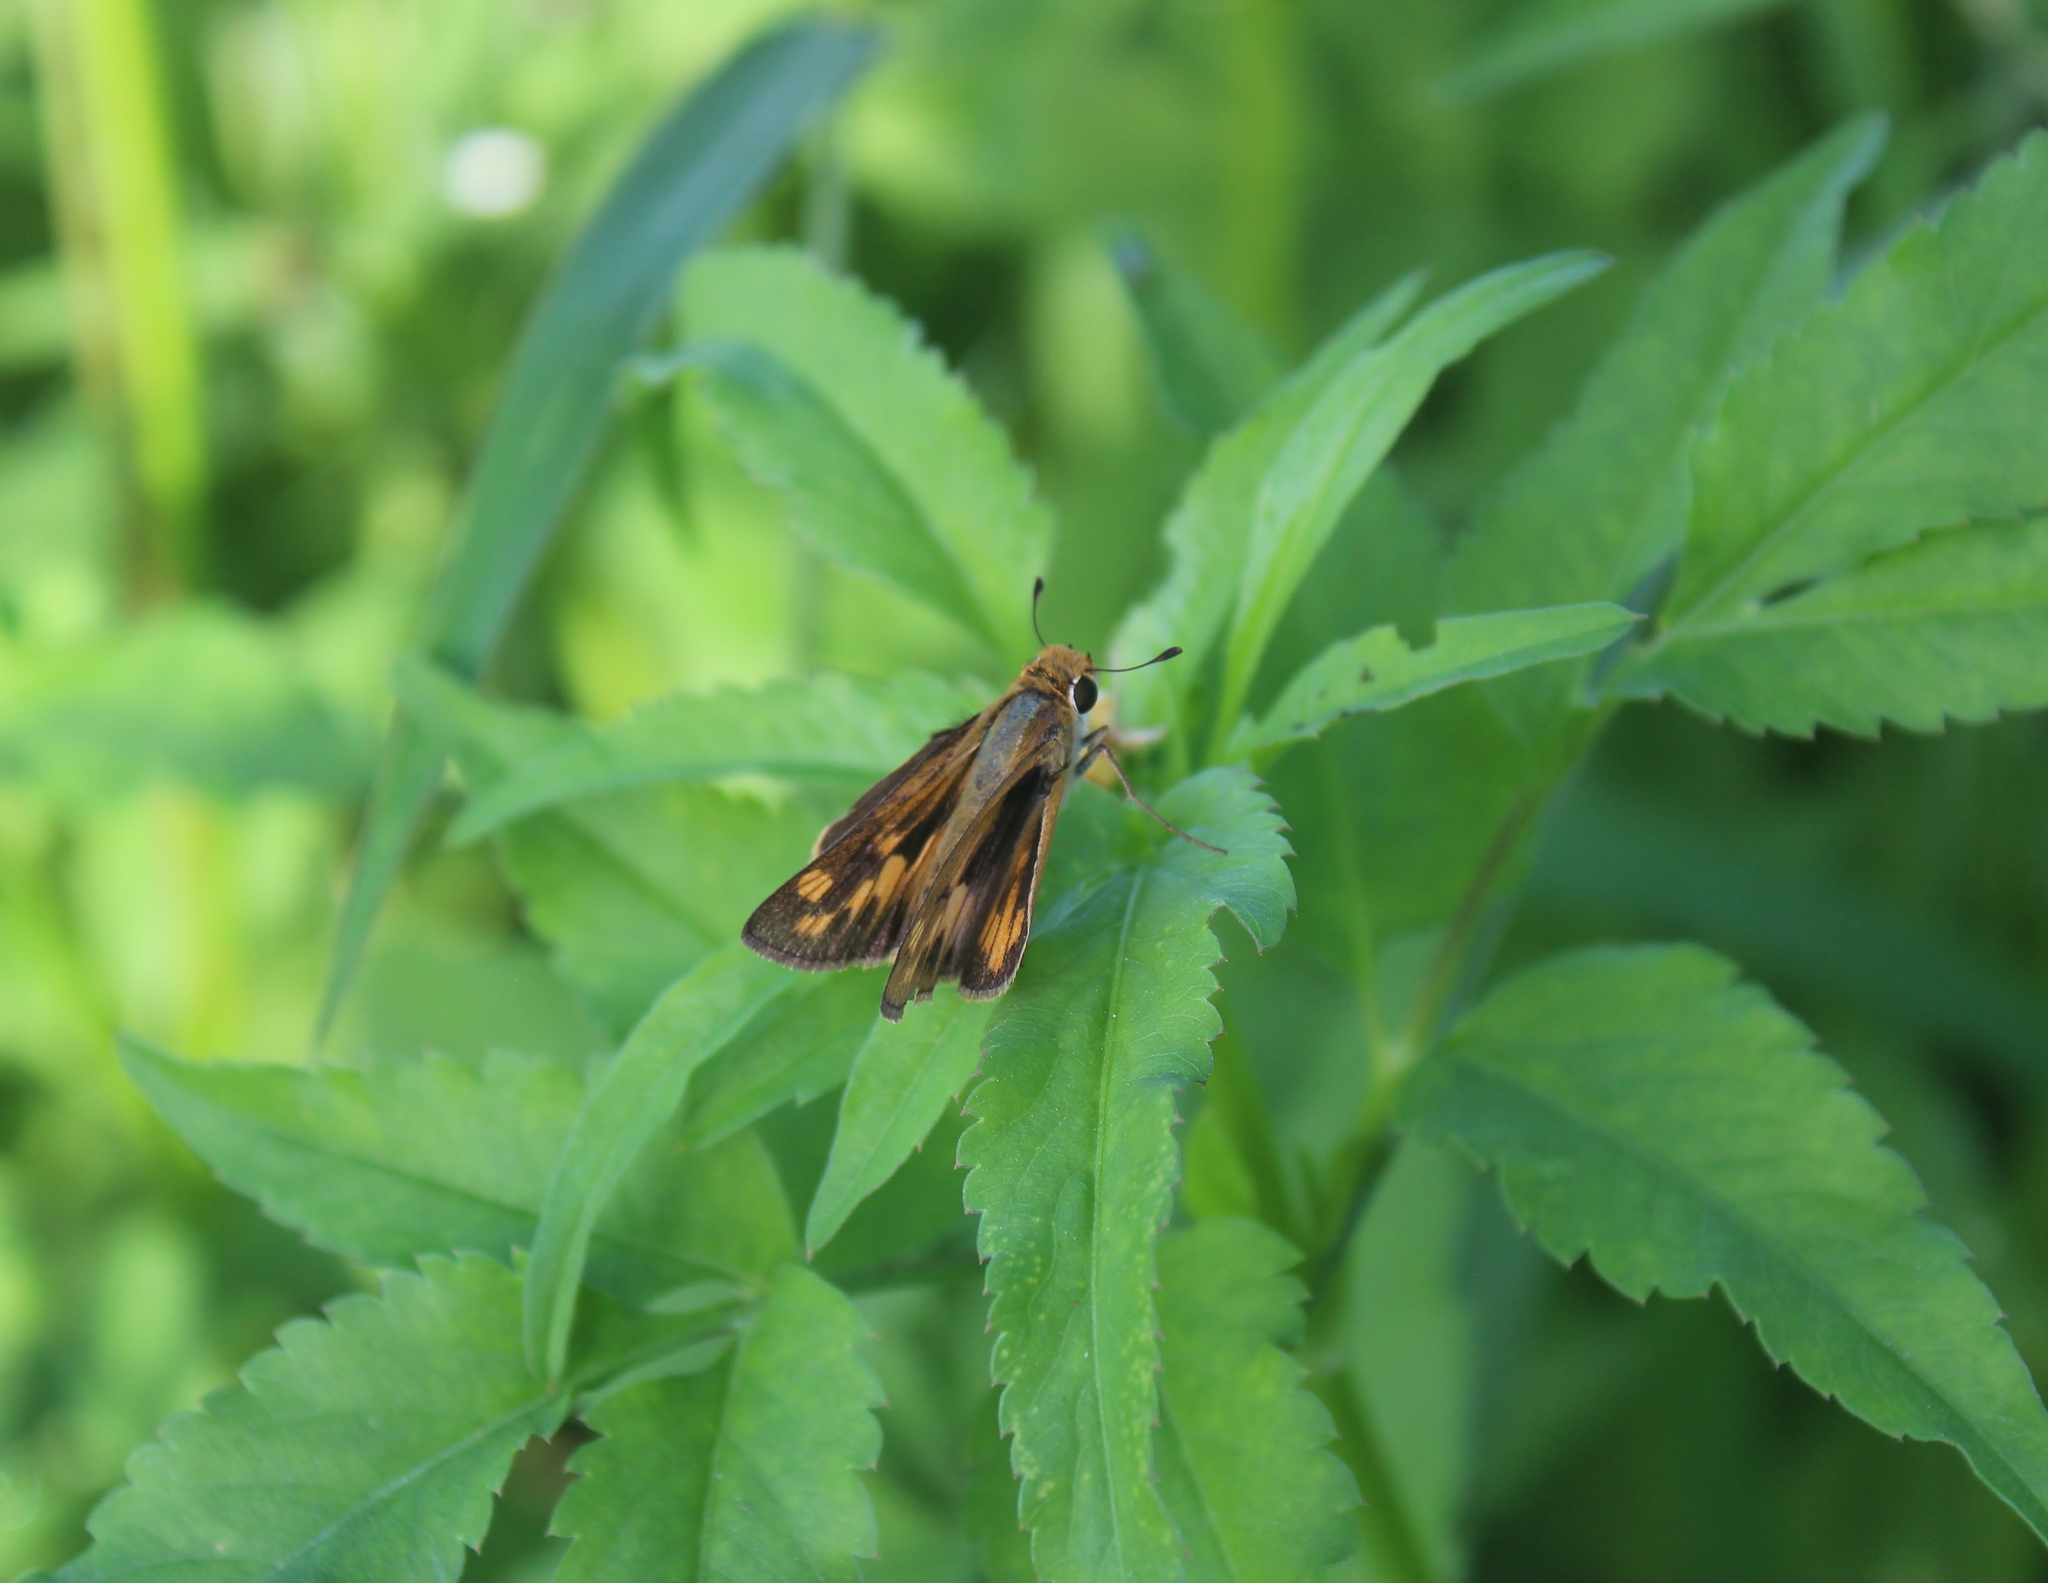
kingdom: Animalia
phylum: Arthropoda
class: Insecta
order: Lepidoptera
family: Hesperiidae
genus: Hylephila
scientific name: Hylephila phyleus
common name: Fiery skipper
